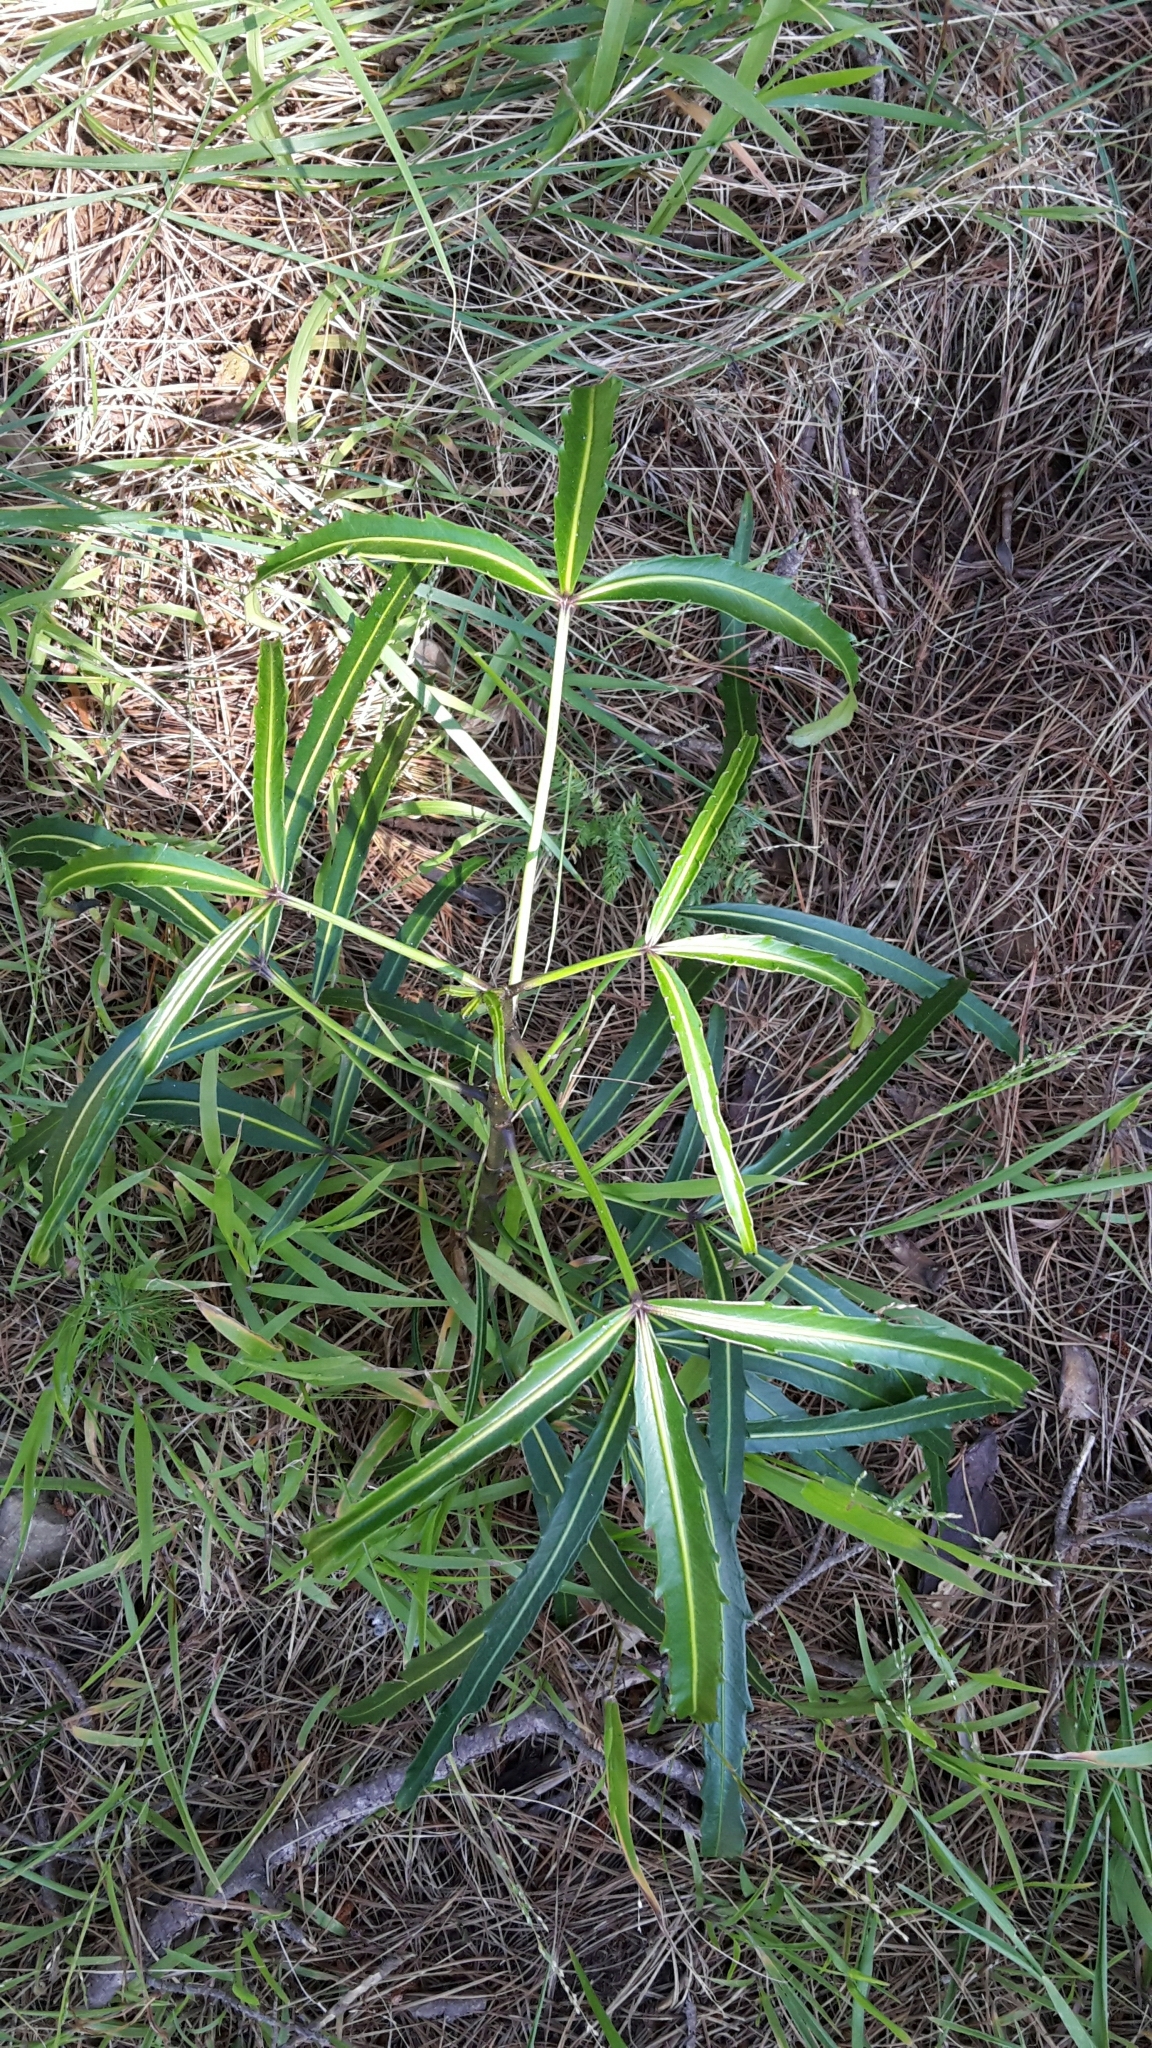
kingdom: Plantae
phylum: Tracheophyta
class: Magnoliopsida
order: Apiales
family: Araliaceae
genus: Pseudopanax
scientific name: Pseudopanax
